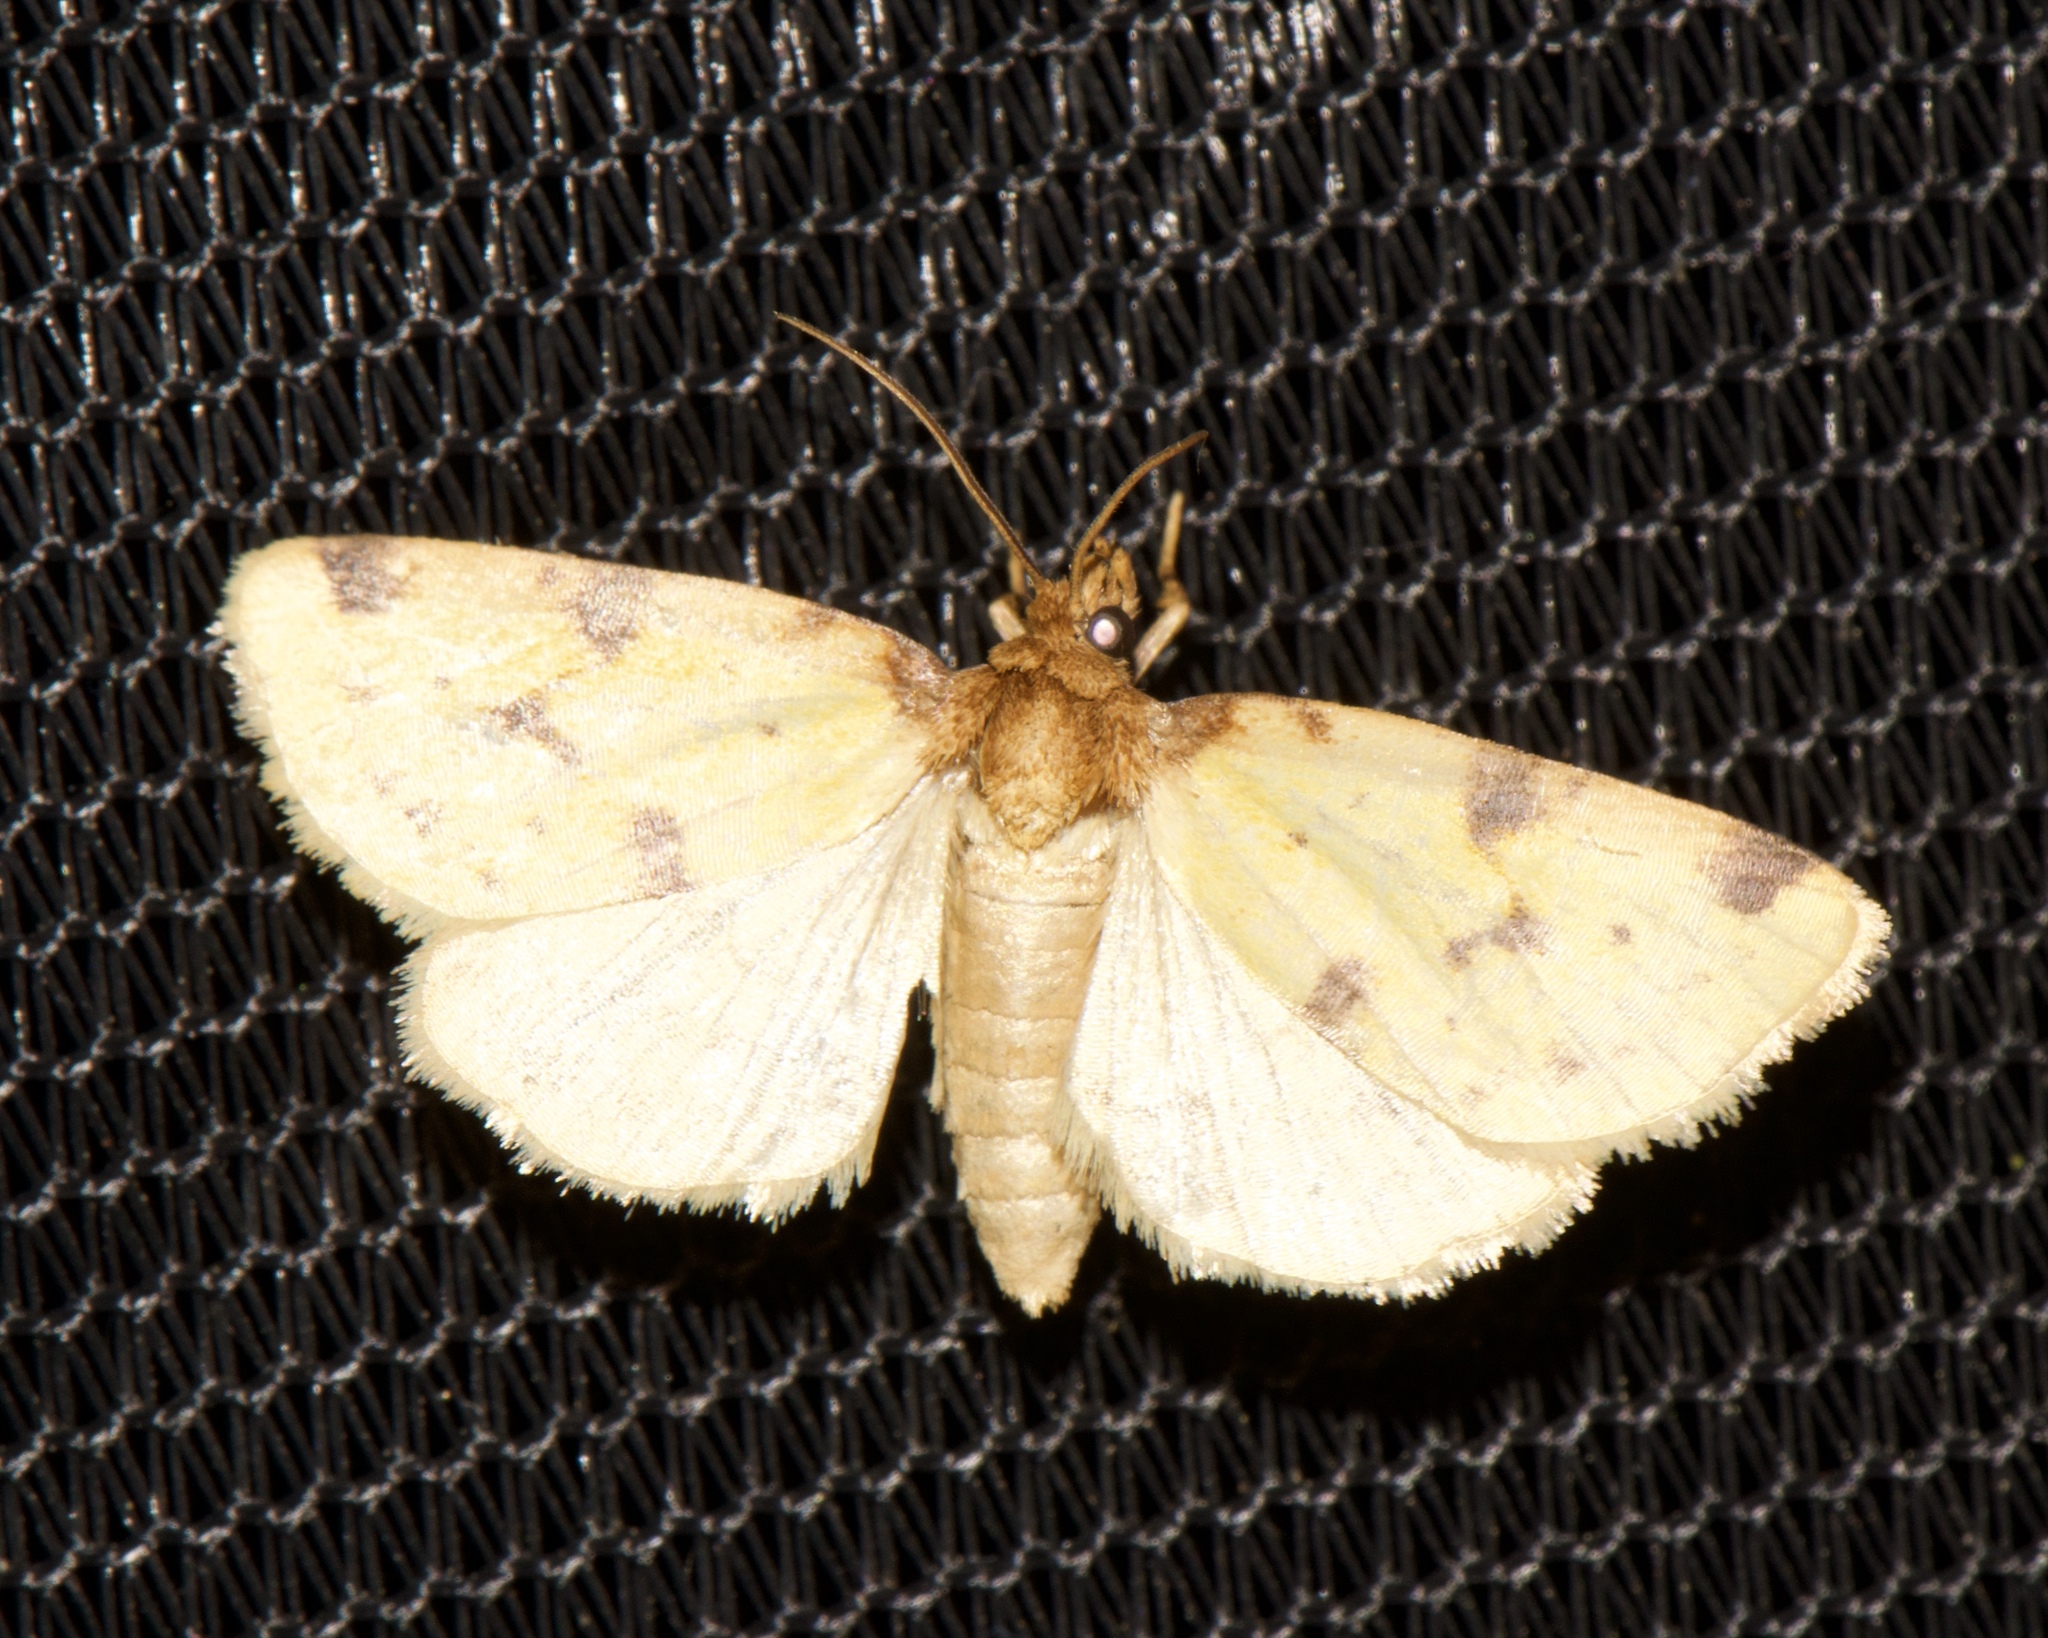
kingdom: Animalia
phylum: Arthropoda
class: Insecta
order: Lepidoptera
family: Noctuidae
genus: Azenia
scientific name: Azenia obtusa
